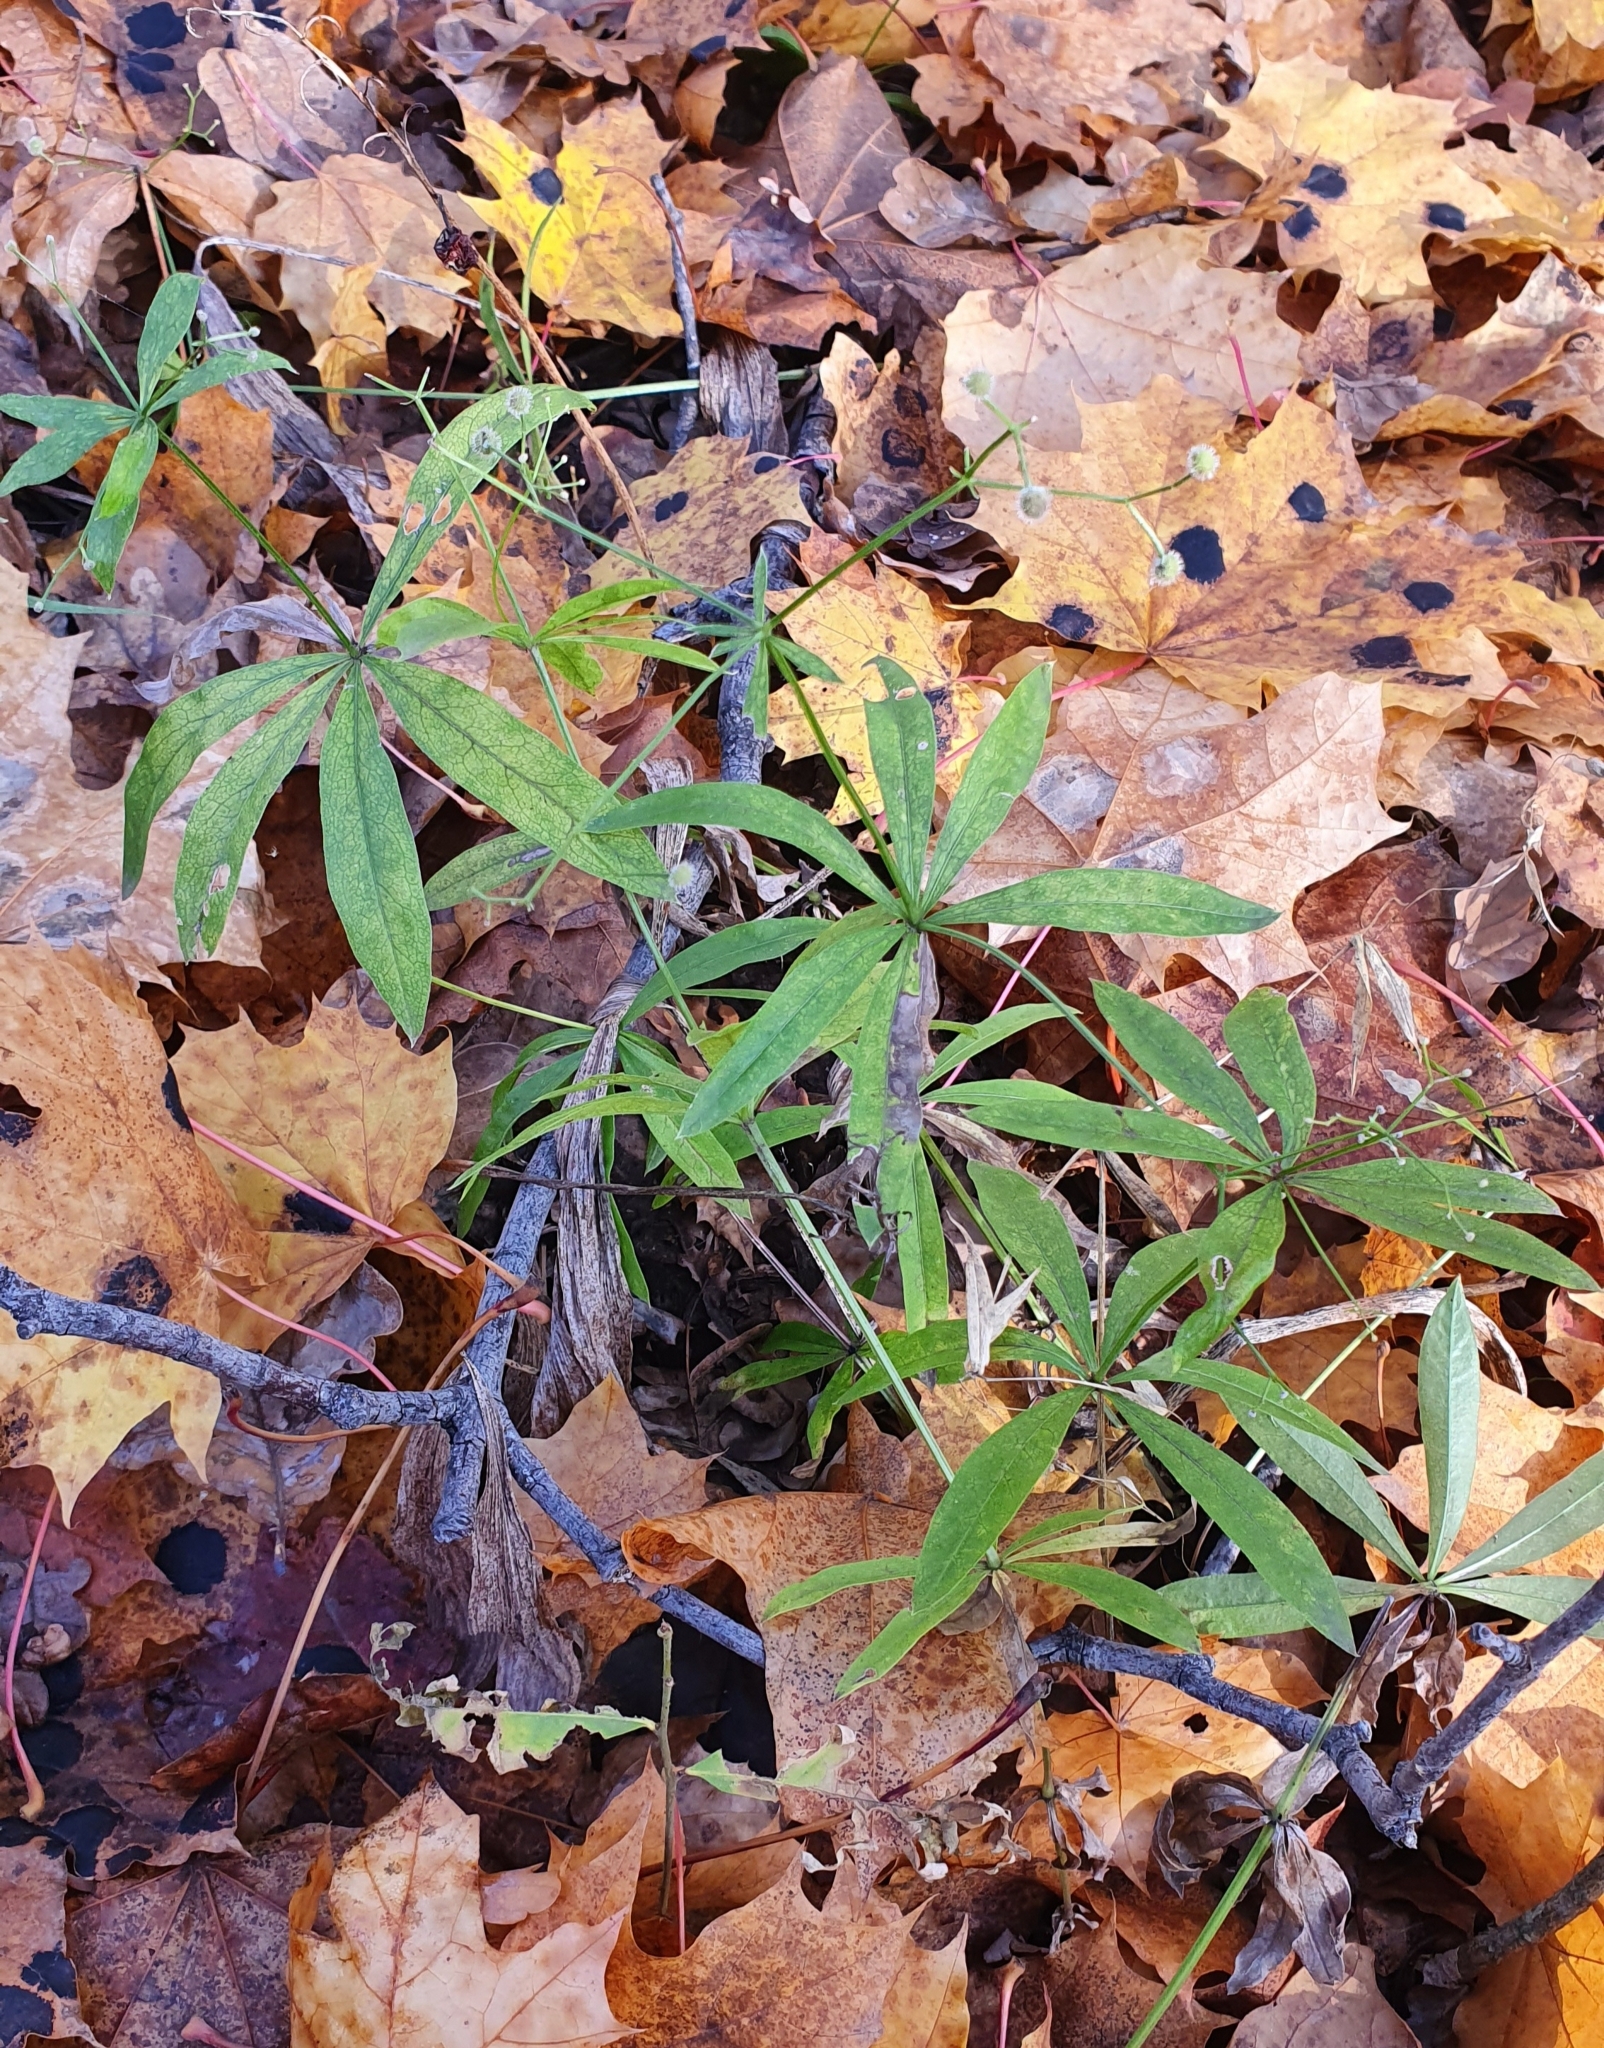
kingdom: Plantae
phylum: Tracheophyta
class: Magnoliopsida
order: Gentianales
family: Rubiaceae
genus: Galium
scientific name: Galium odoratum
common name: Sweet woodruff
